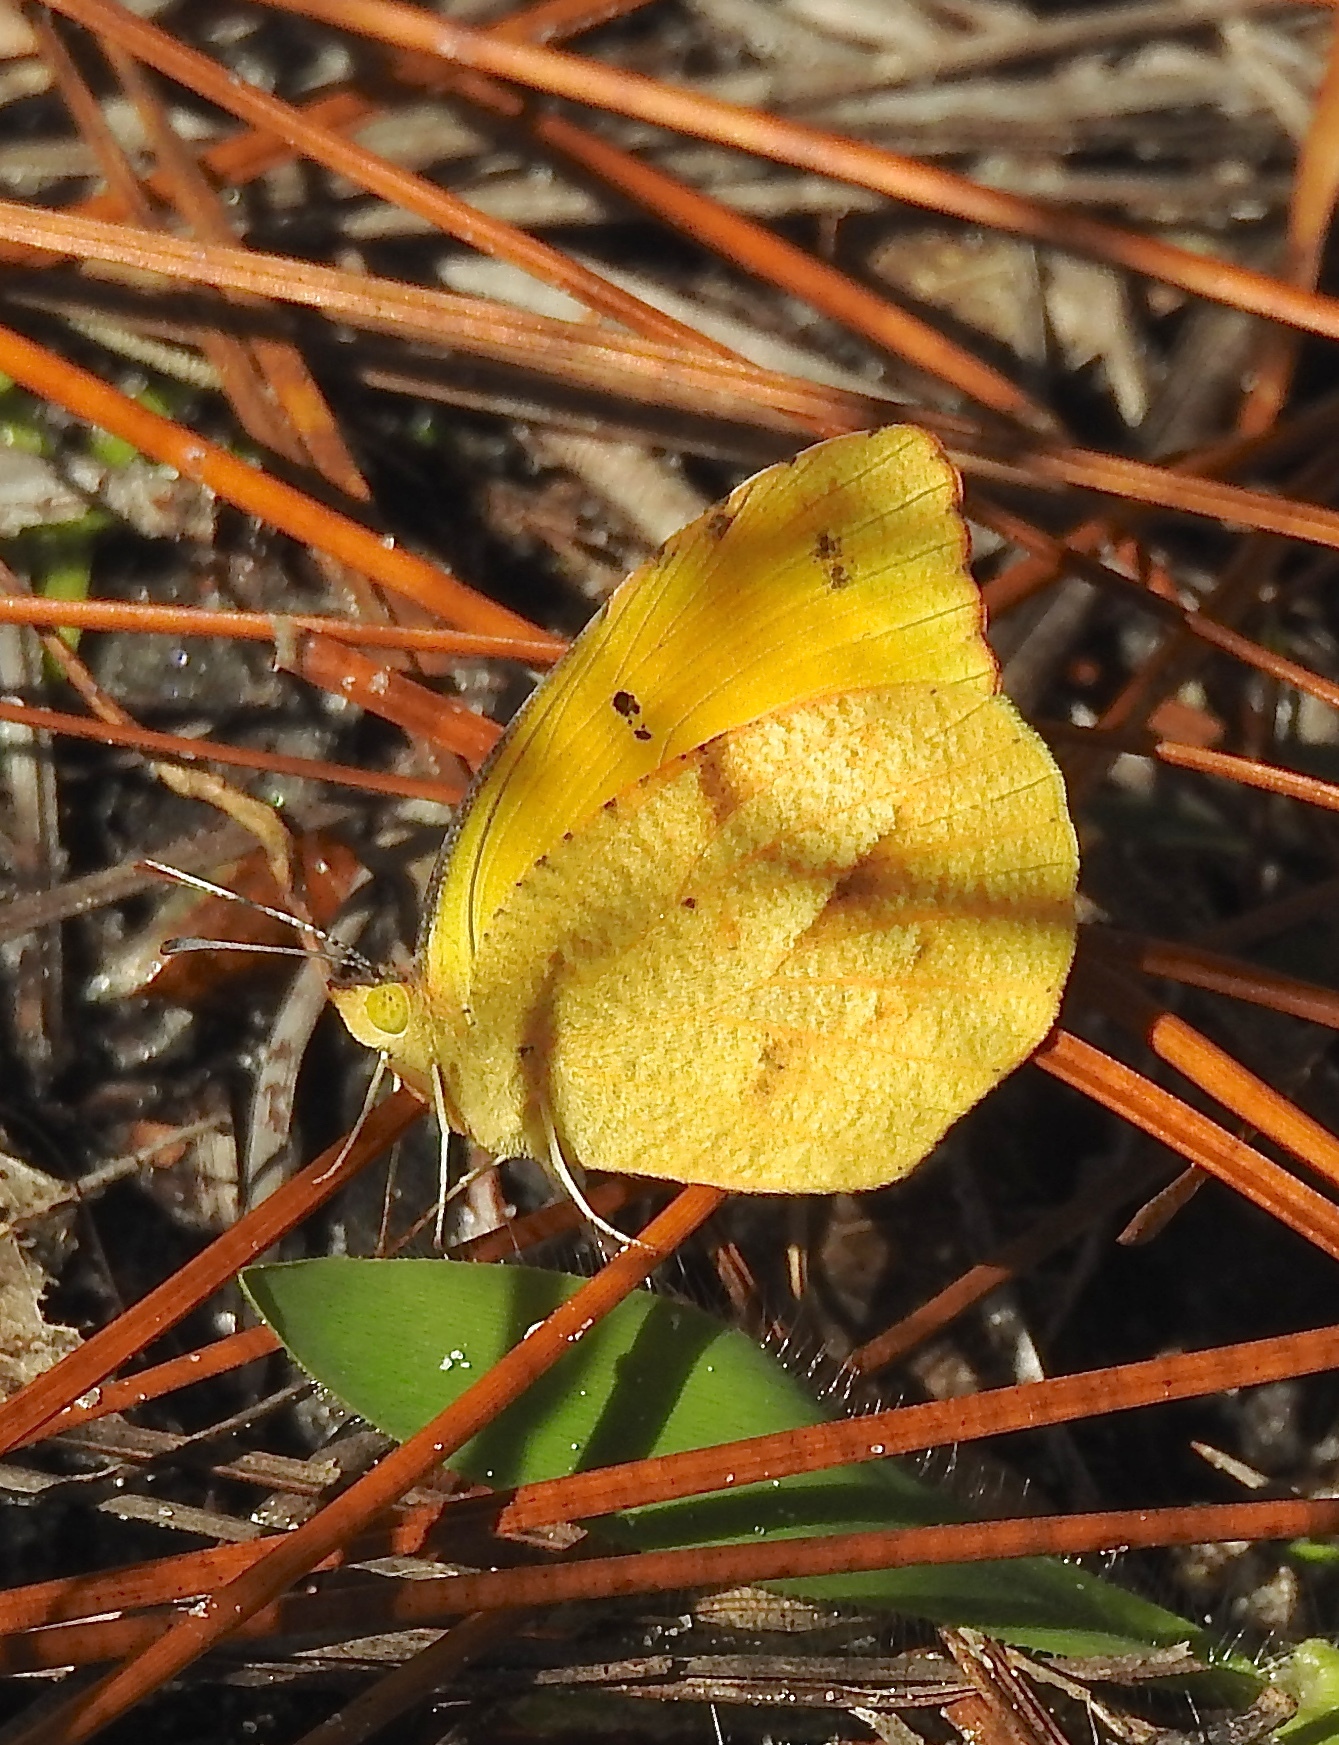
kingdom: Animalia
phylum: Arthropoda
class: Insecta
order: Lepidoptera
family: Pieridae
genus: Abaeis
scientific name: Abaeis nicippe
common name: Sleepy orange
